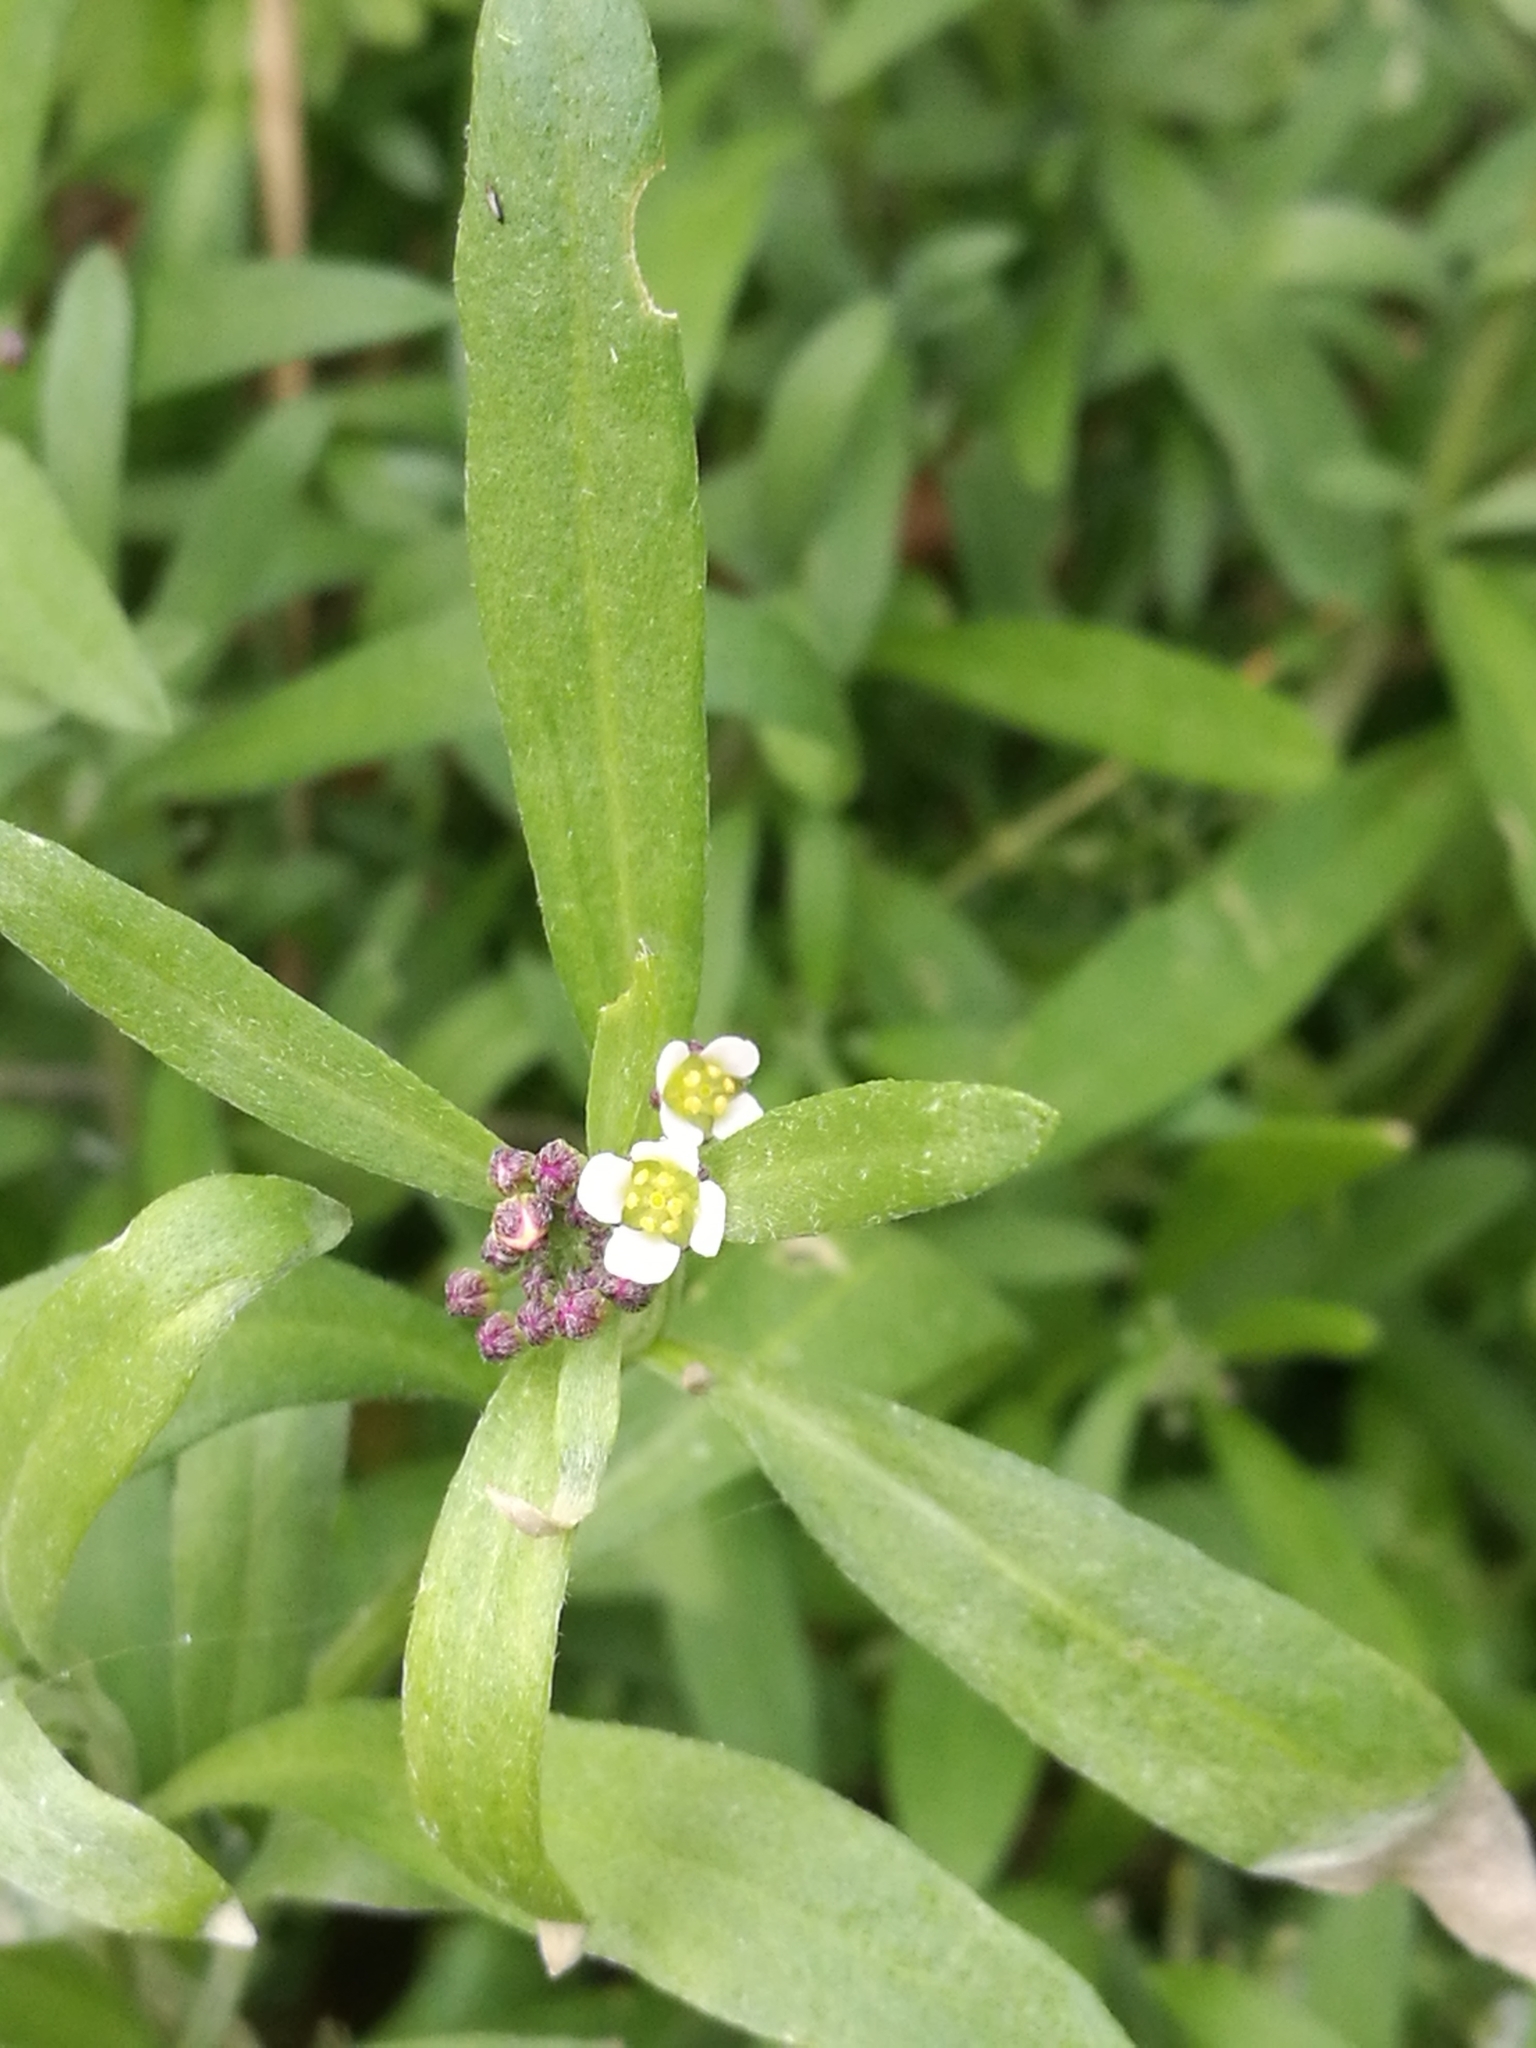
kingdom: Plantae
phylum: Tracheophyta
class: Magnoliopsida
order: Brassicales
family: Brassicaceae
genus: Lobularia
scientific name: Lobularia maritima
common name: Sweet alison
